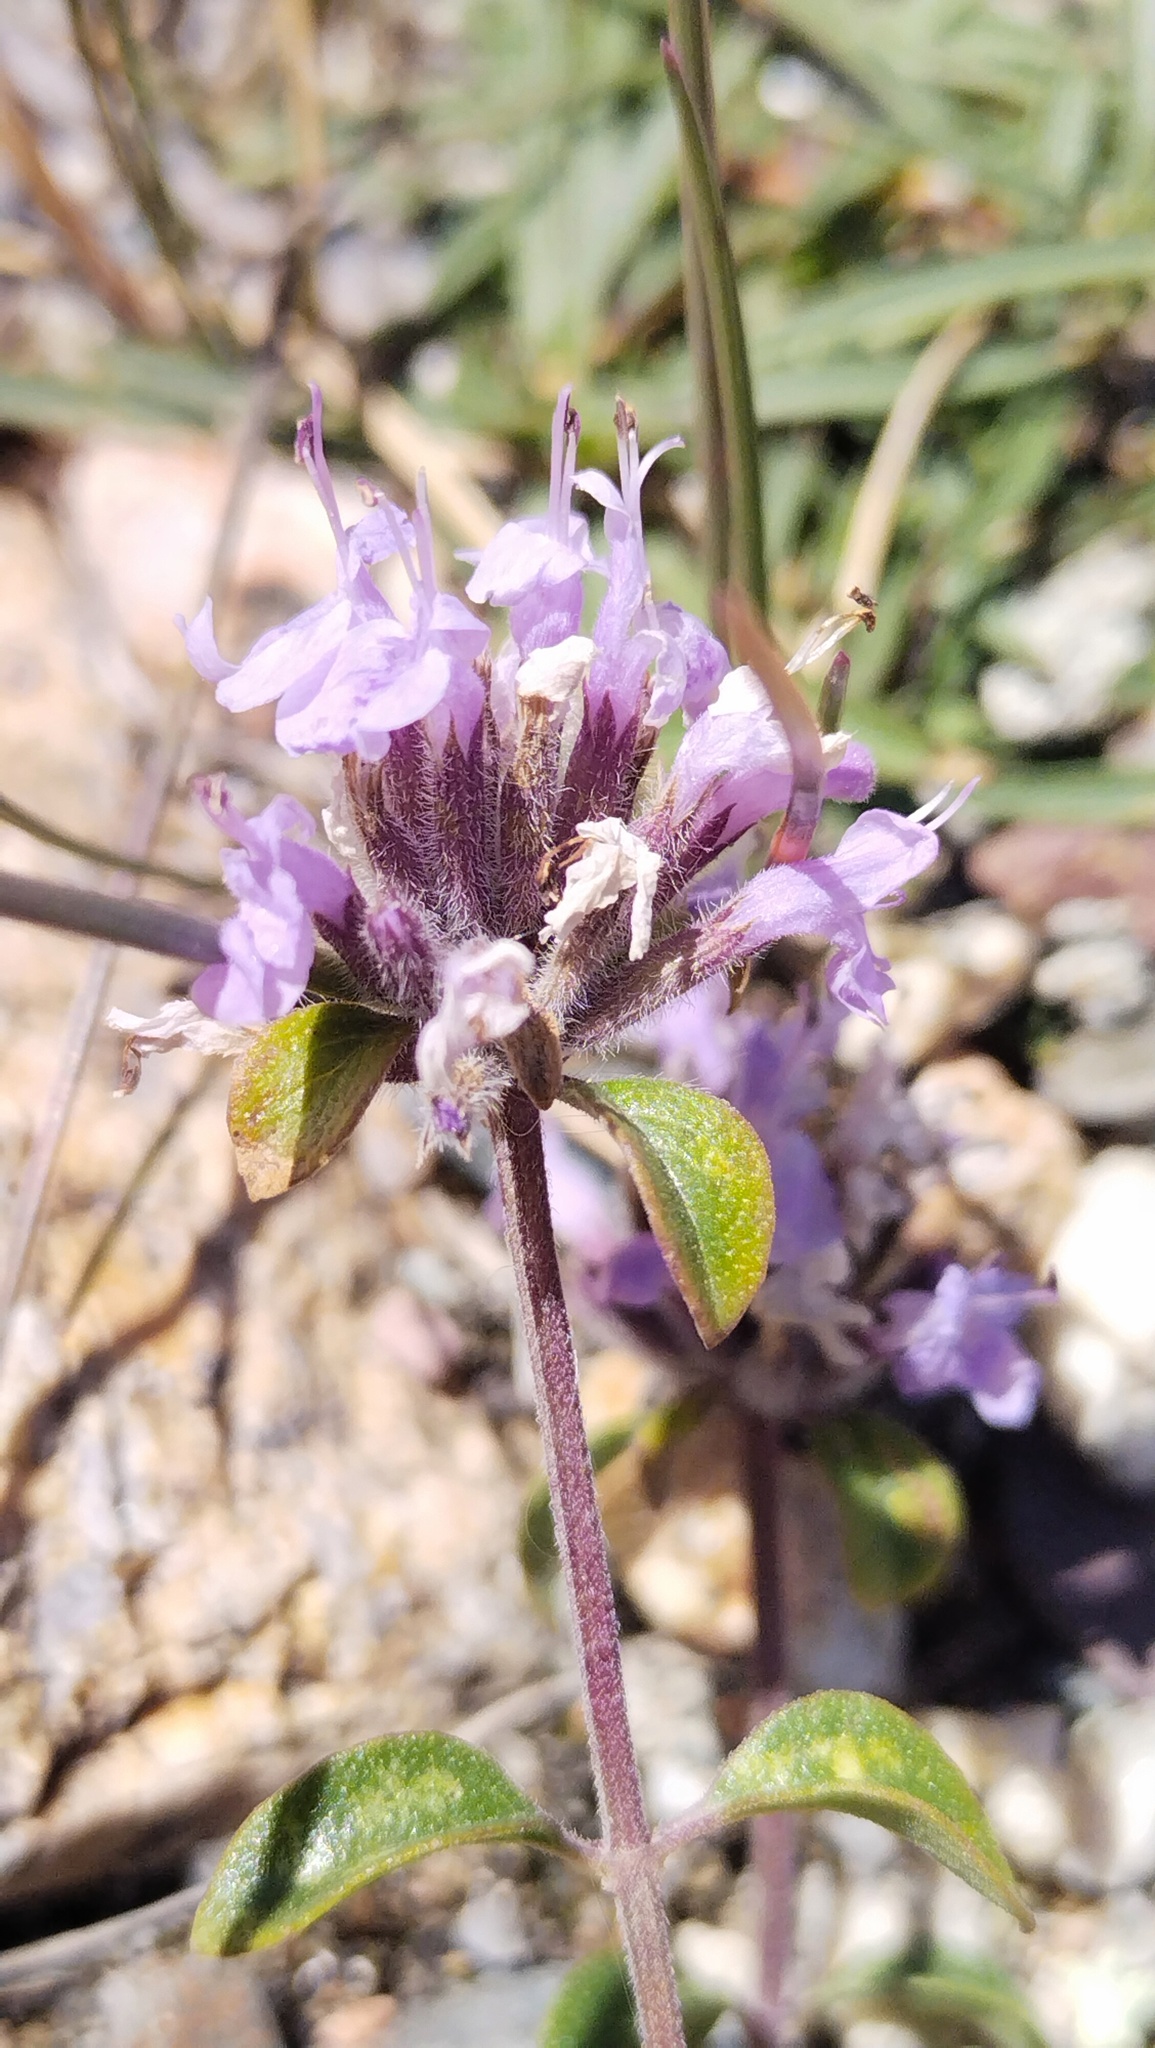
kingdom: Plantae
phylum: Tracheophyta
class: Magnoliopsida
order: Lamiales
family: Lamiaceae
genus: Ziziphora
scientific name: Ziziphora clinopodioides
